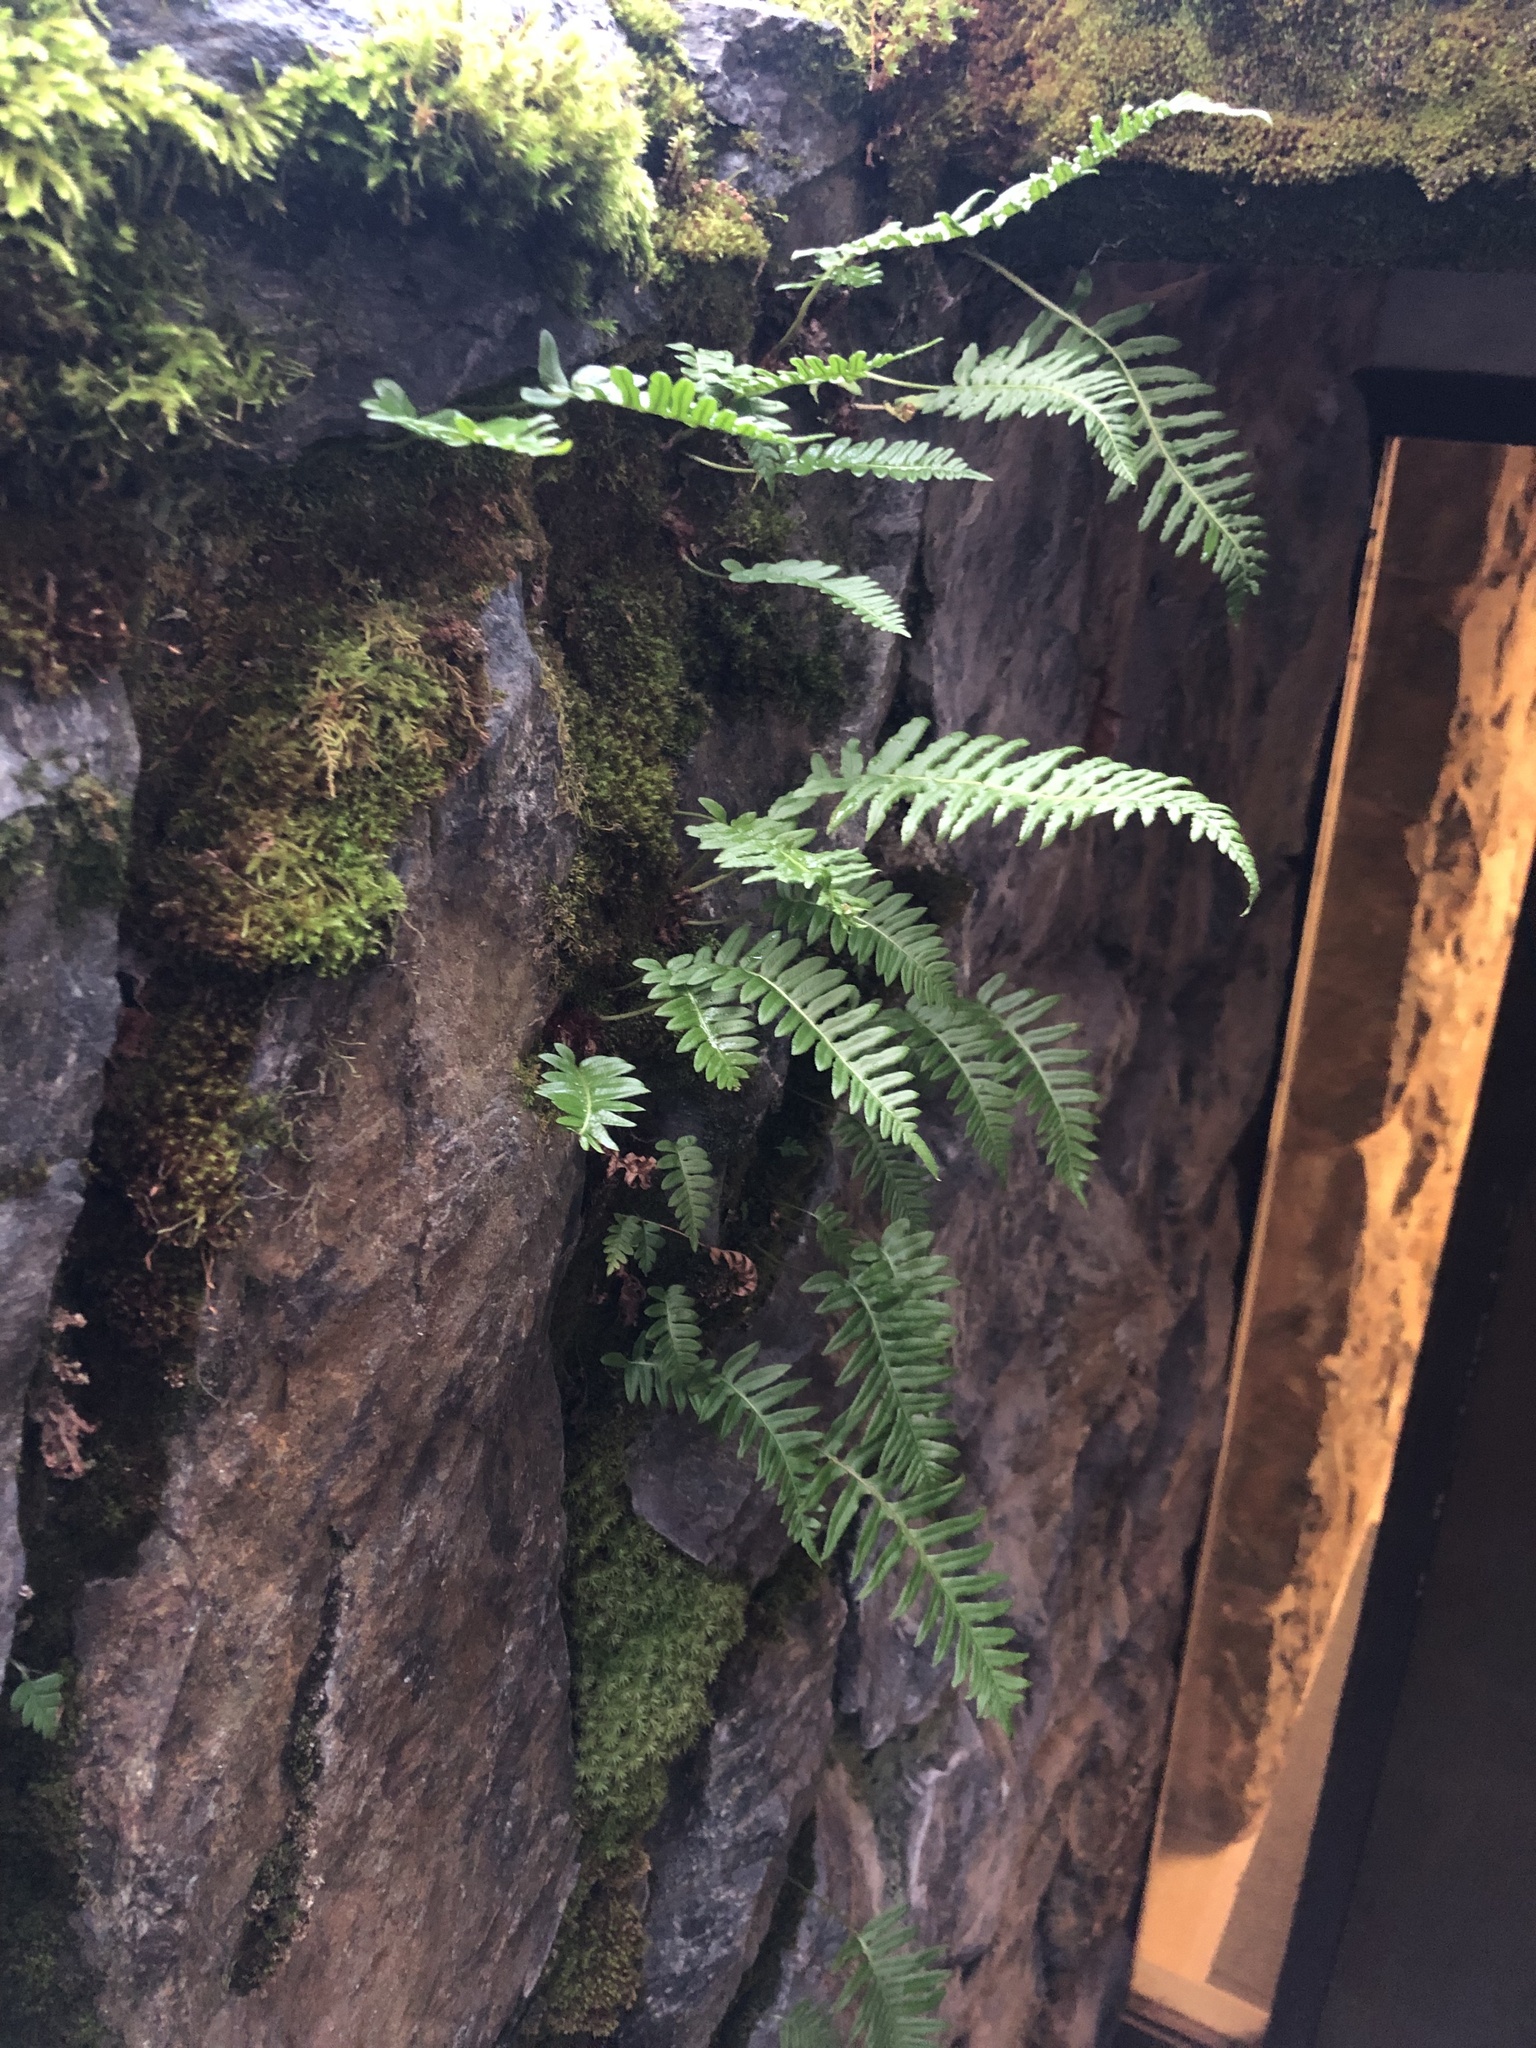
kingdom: Plantae
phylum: Tracheophyta
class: Polypodiopsida
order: Polypodiales
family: Polypodiaceae
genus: Polypodium
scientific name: Polypodium glycyrrhiza
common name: Licorice fern
